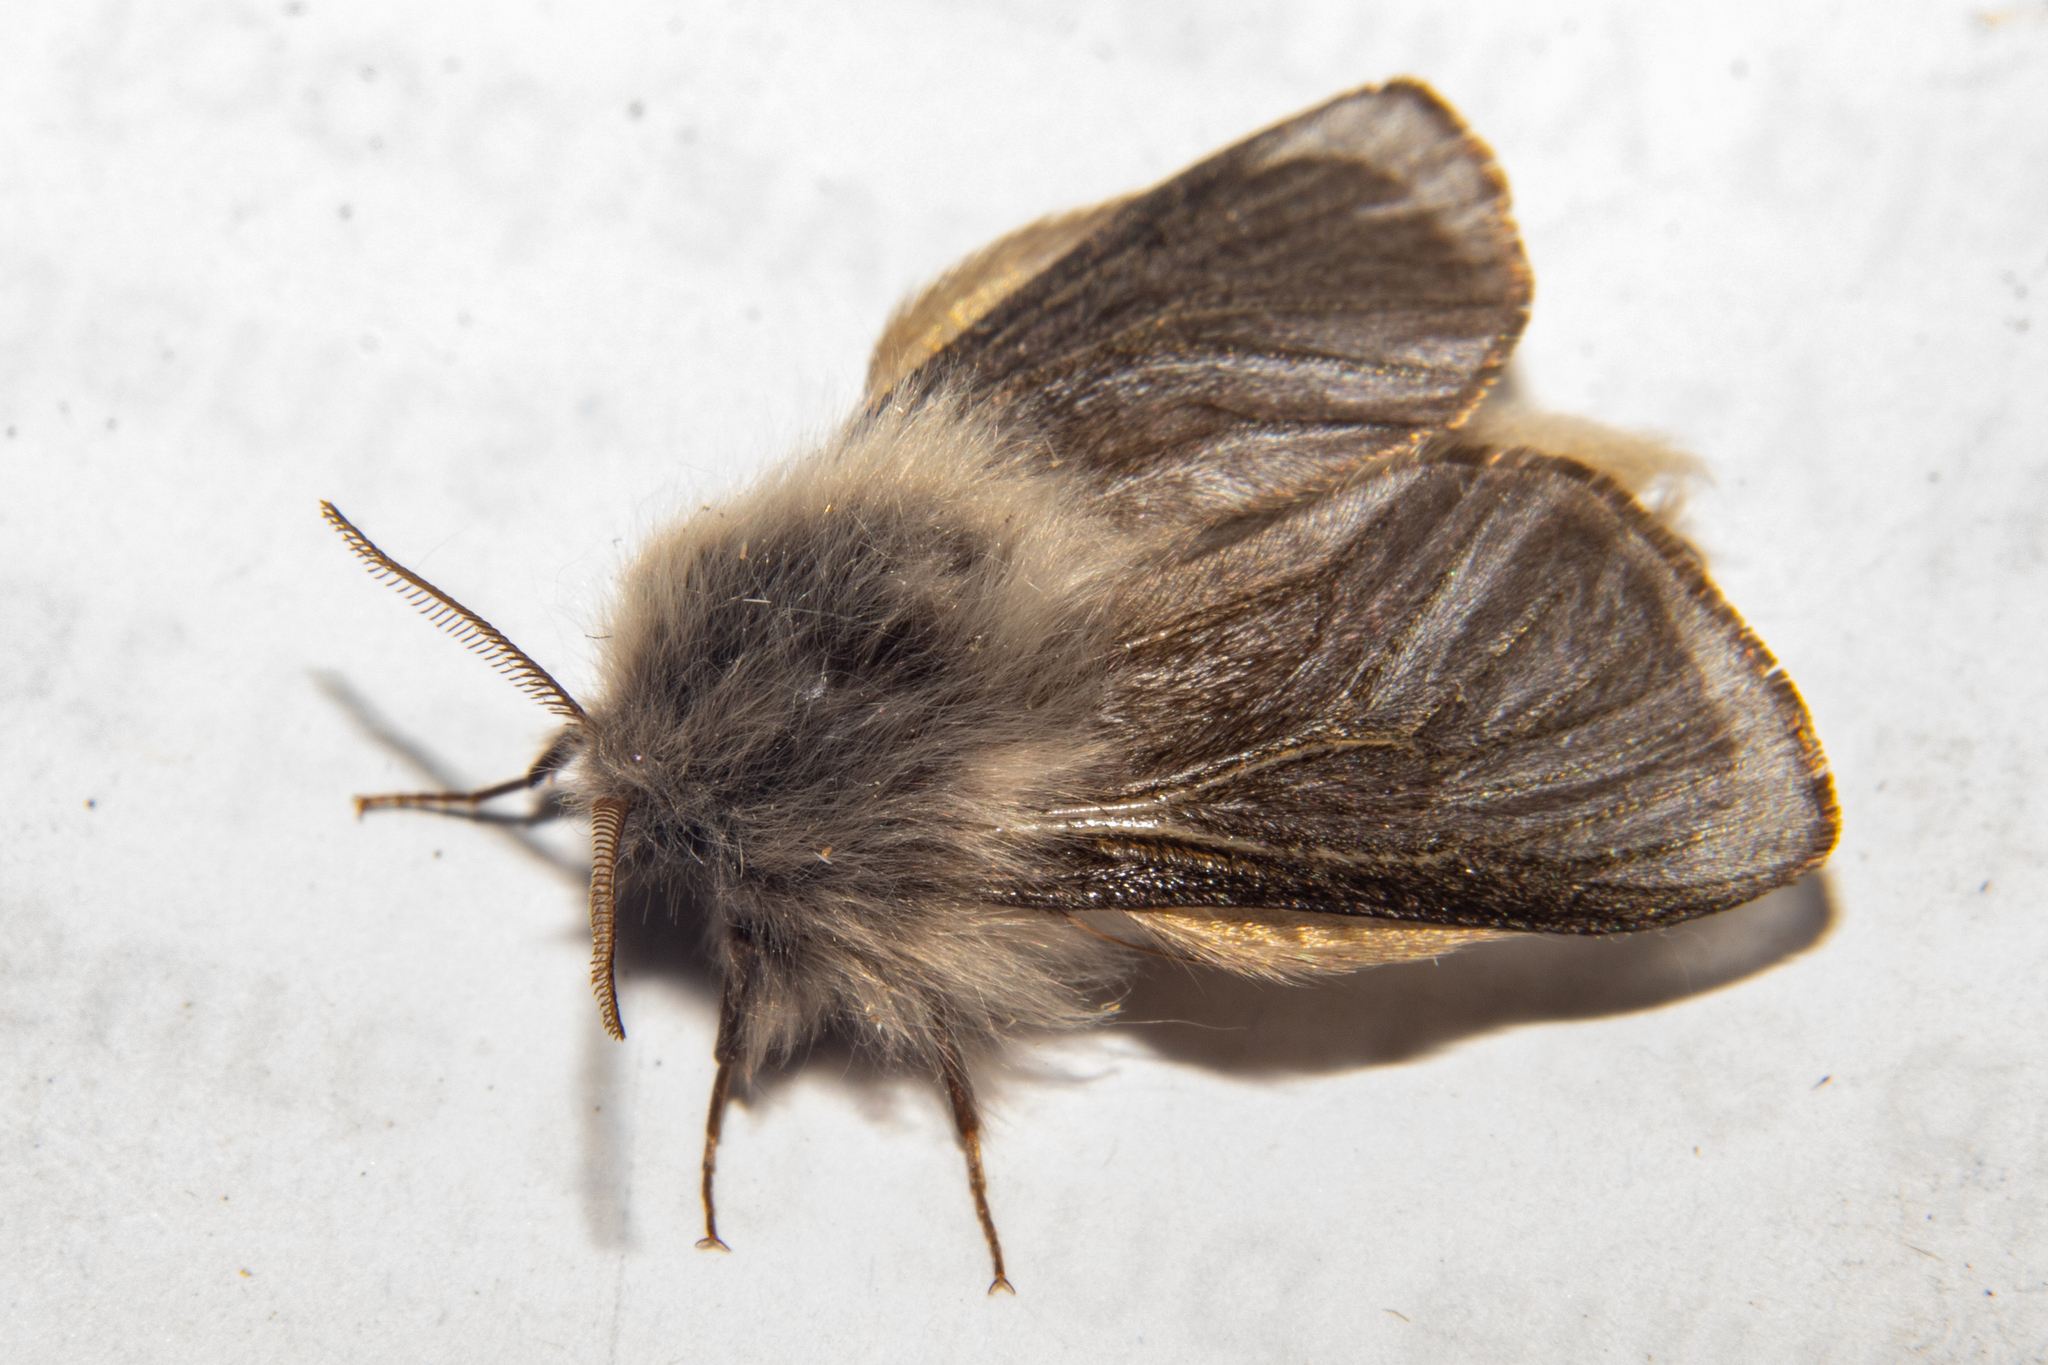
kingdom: Animalia
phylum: Arthropoda
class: Insecta
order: Lepidoptera
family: Psychidae
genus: Orophora
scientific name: Orophora unicolor
